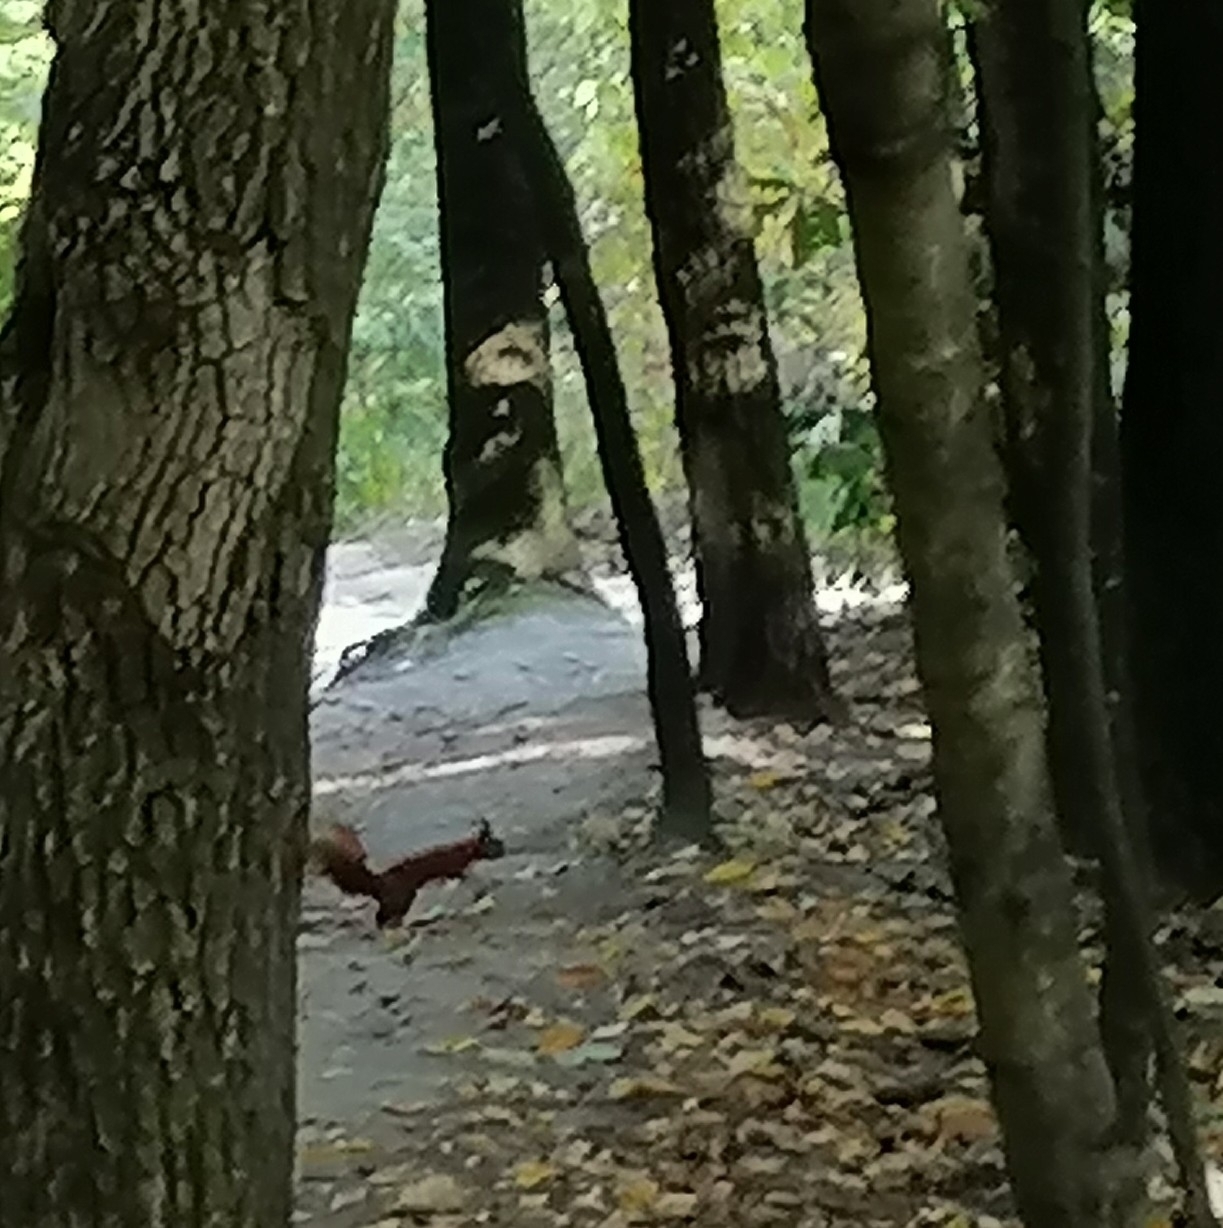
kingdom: Animalia
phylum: Chordata
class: Mammalia
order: Rodentia
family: Sciuridae
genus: Sciurus
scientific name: Sciurus vulgaris
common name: Eurasian red squirrel
